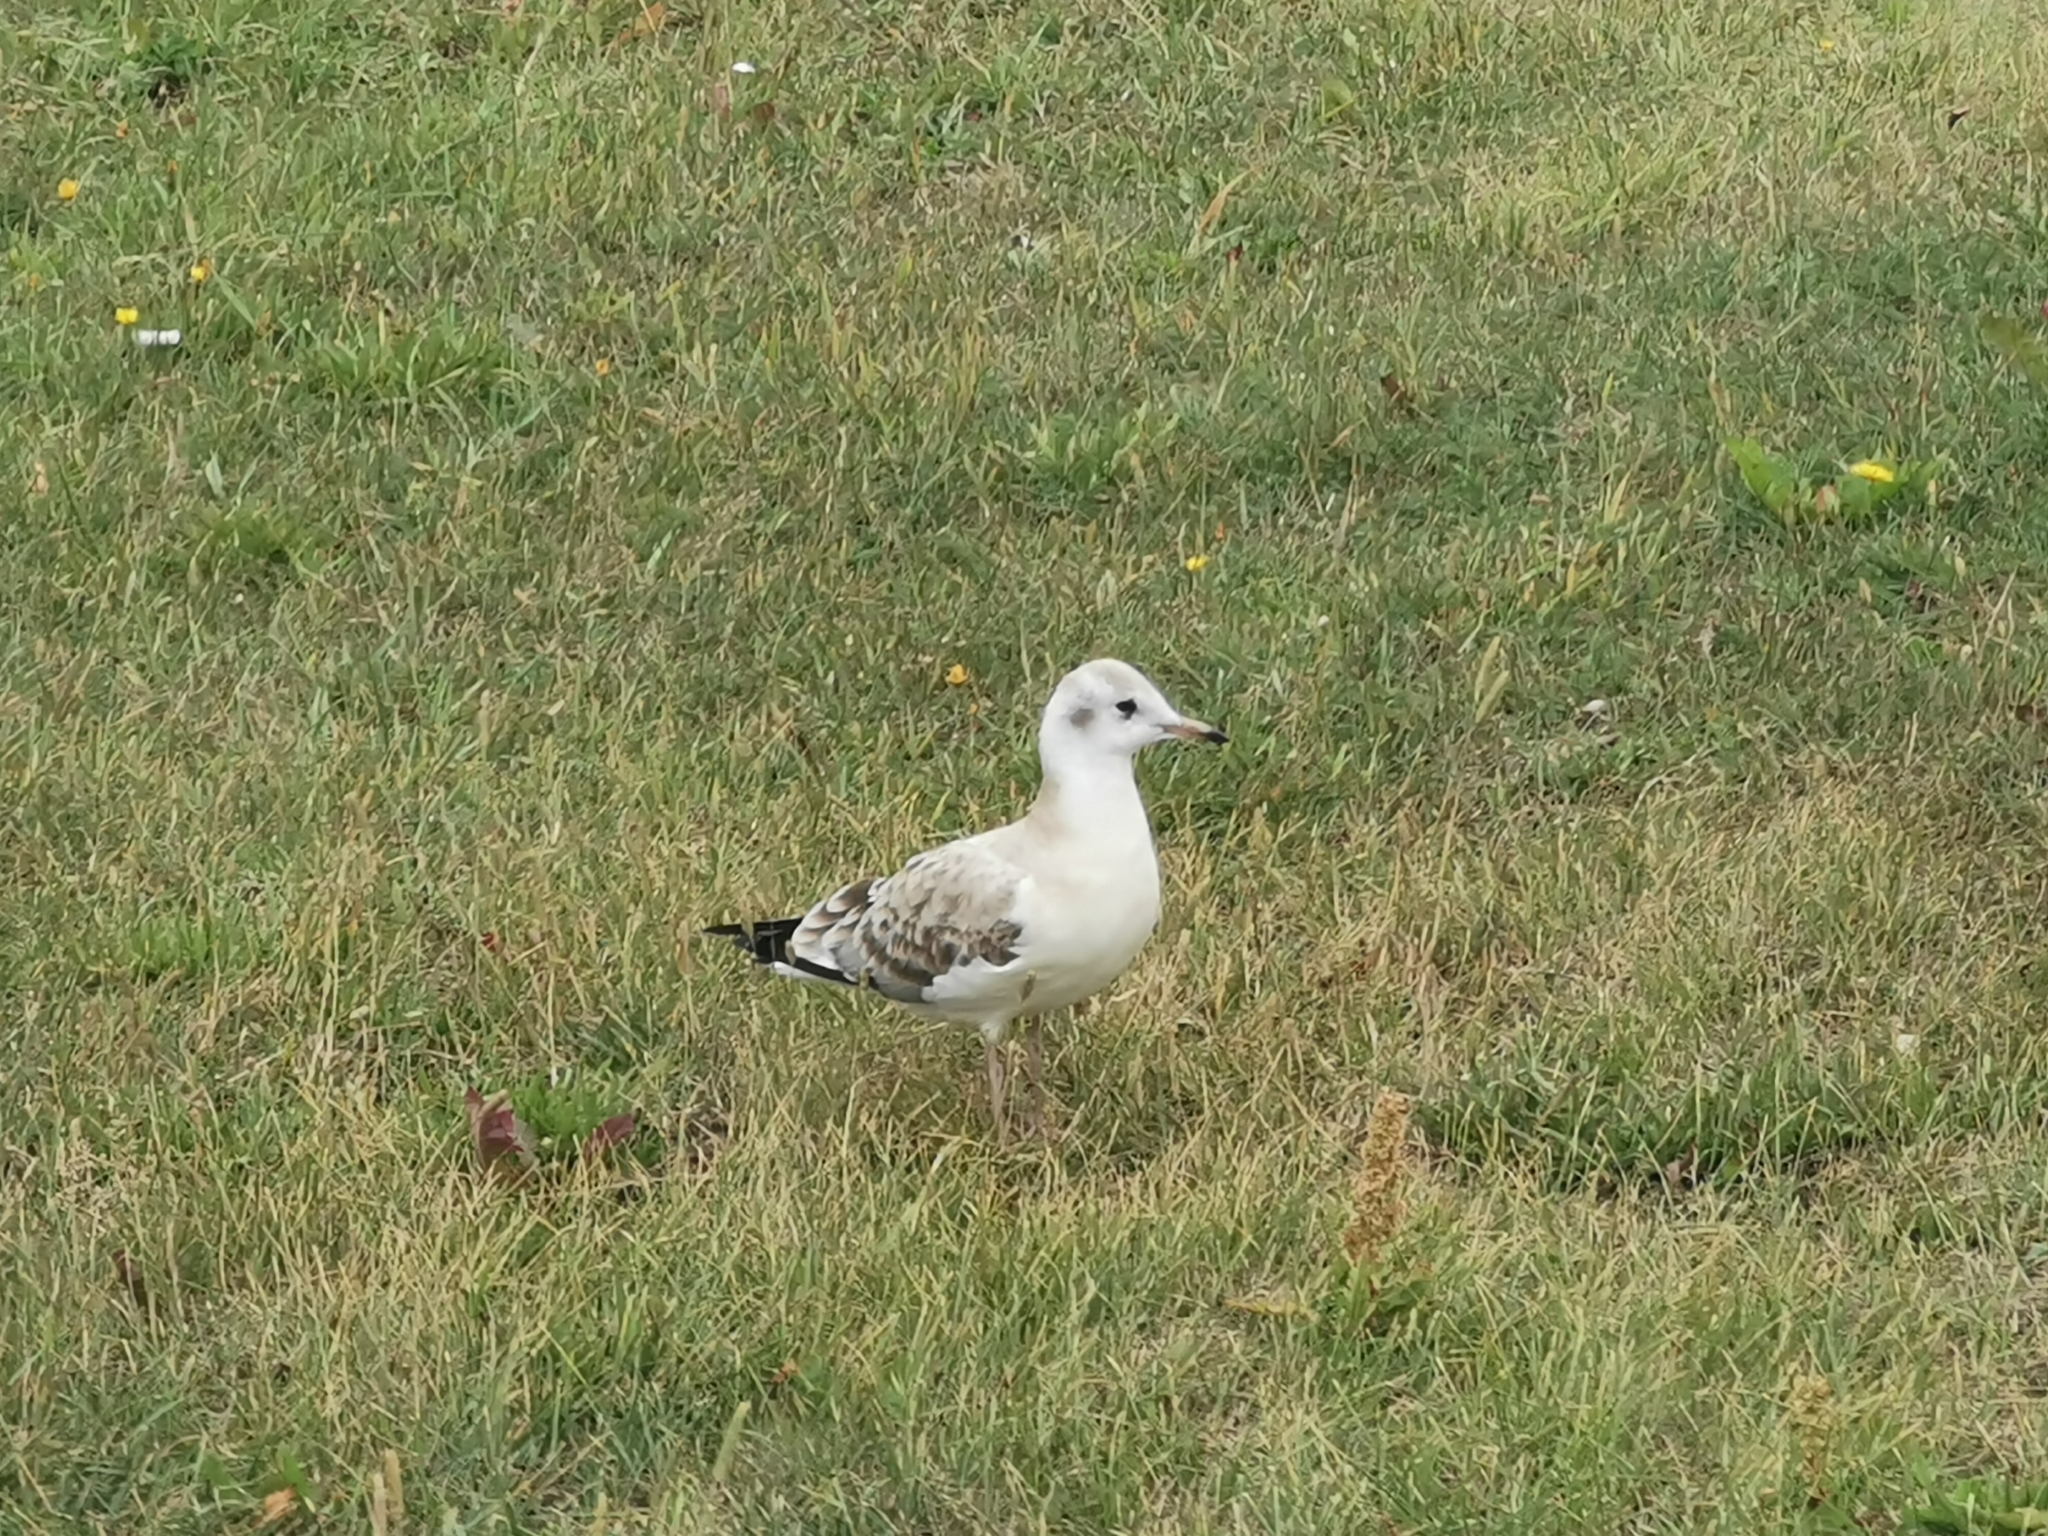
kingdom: Animalia
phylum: Chordata
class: Aves
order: Charadriiformes
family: Laridae
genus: Chroicocephalus
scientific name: Chroicocephalus ridibundus
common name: Black-headed gull
